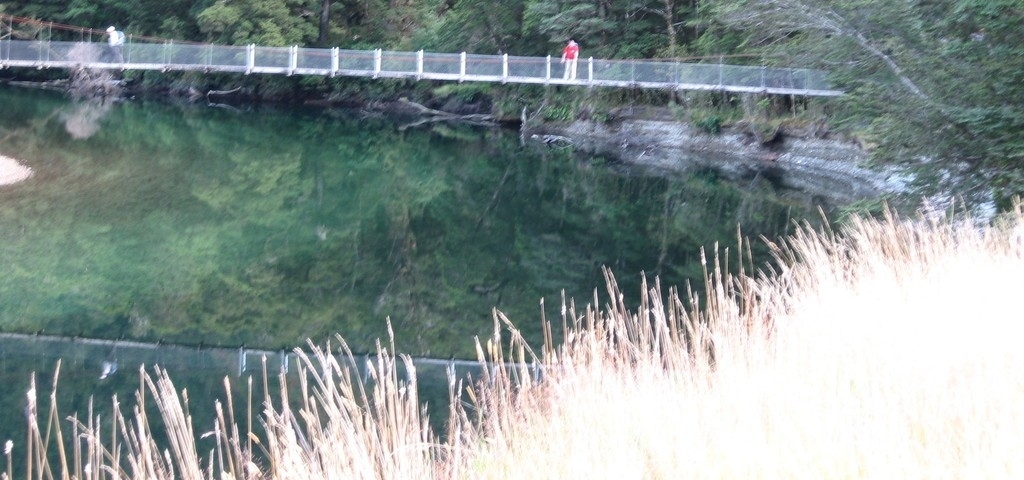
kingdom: Plantae
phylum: Tracheophyta
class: Liliopsida
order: Poales
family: Poaceae
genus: Dactylis
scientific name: Dactylis glomerata
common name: Orchardgrass
